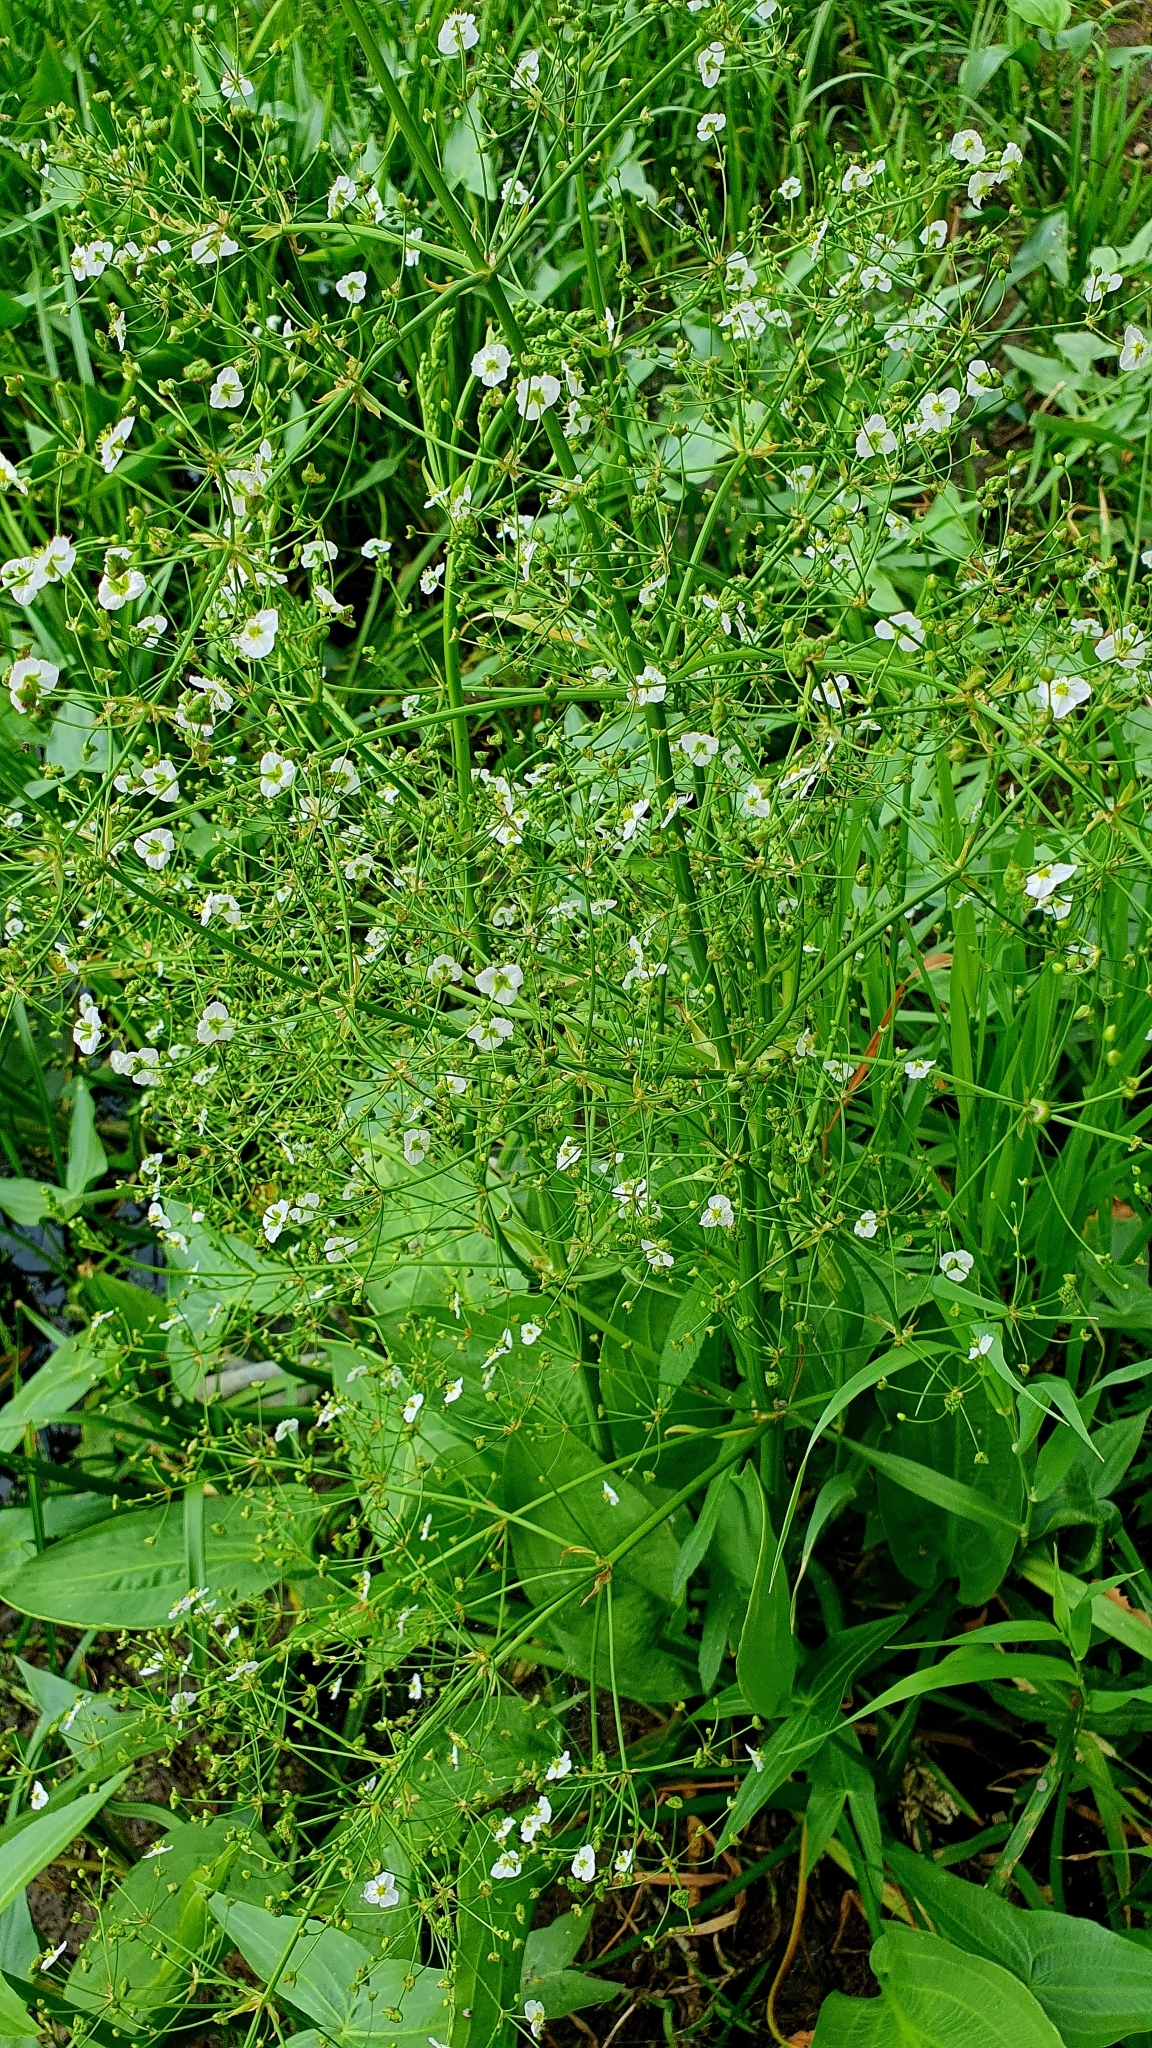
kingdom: Plantae
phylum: Tracheophyta
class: Liliopsida
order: Alismatales
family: Alismataceae
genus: Alisma
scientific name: Alisma plantago-aquatica
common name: Water-plantain
